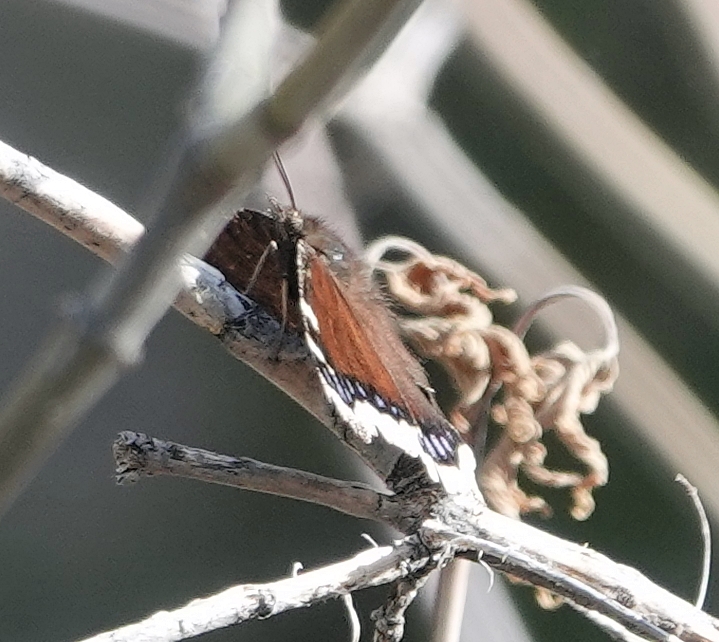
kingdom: Animalia
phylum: Arthropoda
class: Insecta
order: Lepidoptera
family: Nymphalidae
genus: Nymphalis
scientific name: Nymphalis antiopa
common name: Camberwell beauty
